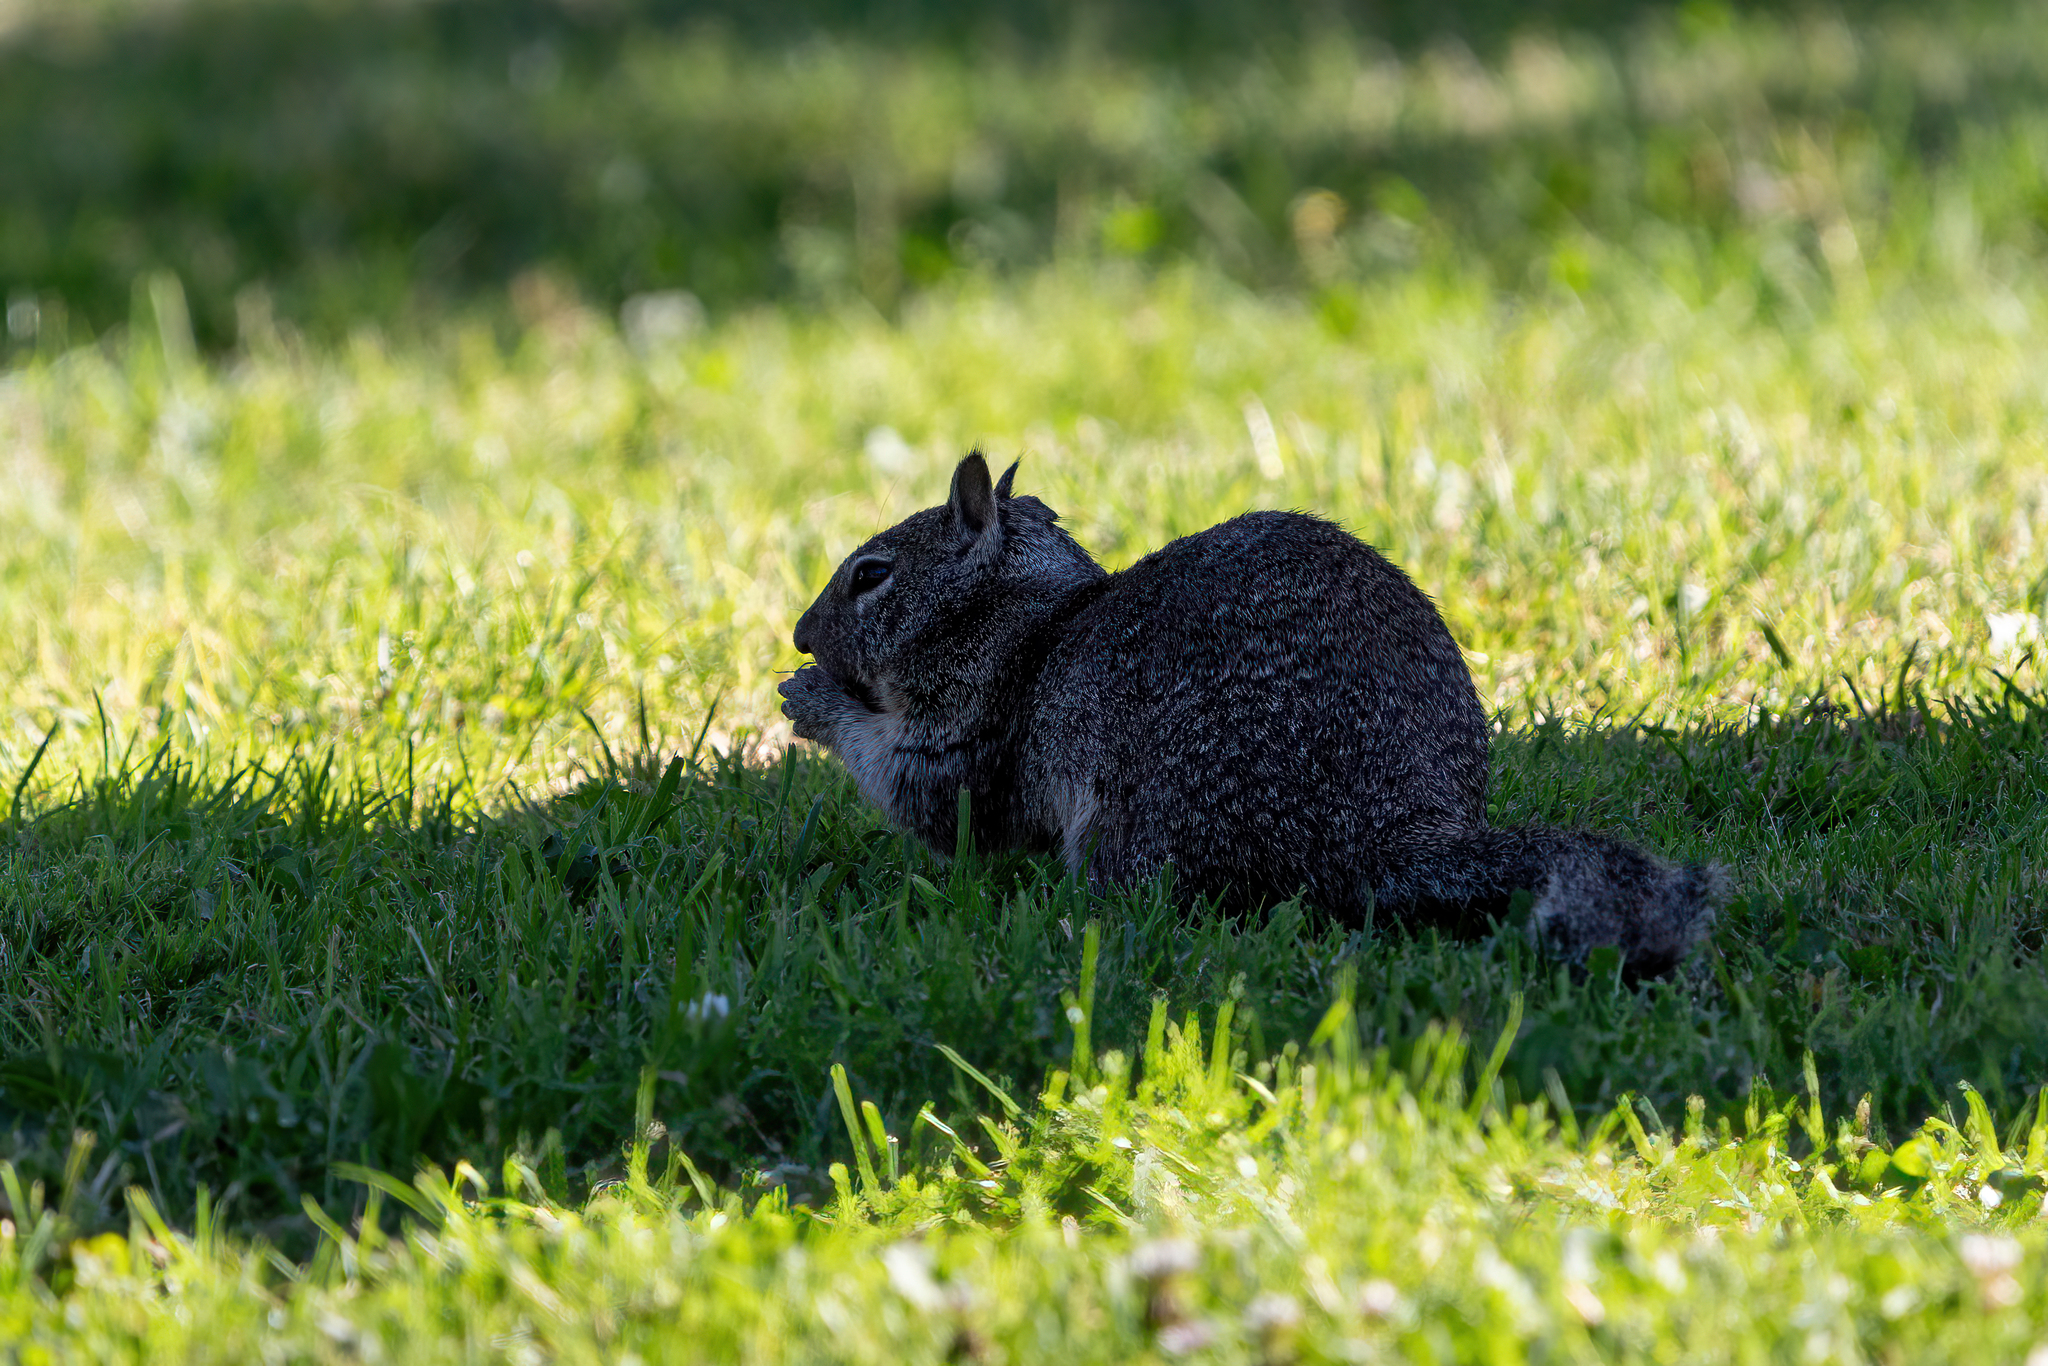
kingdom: Animalia
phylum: Chordata
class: Mammalia
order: Rodentia
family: Sciuridae
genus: Otospermophilus
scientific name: Otospermophilus beecheyi
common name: California ground squirrel
